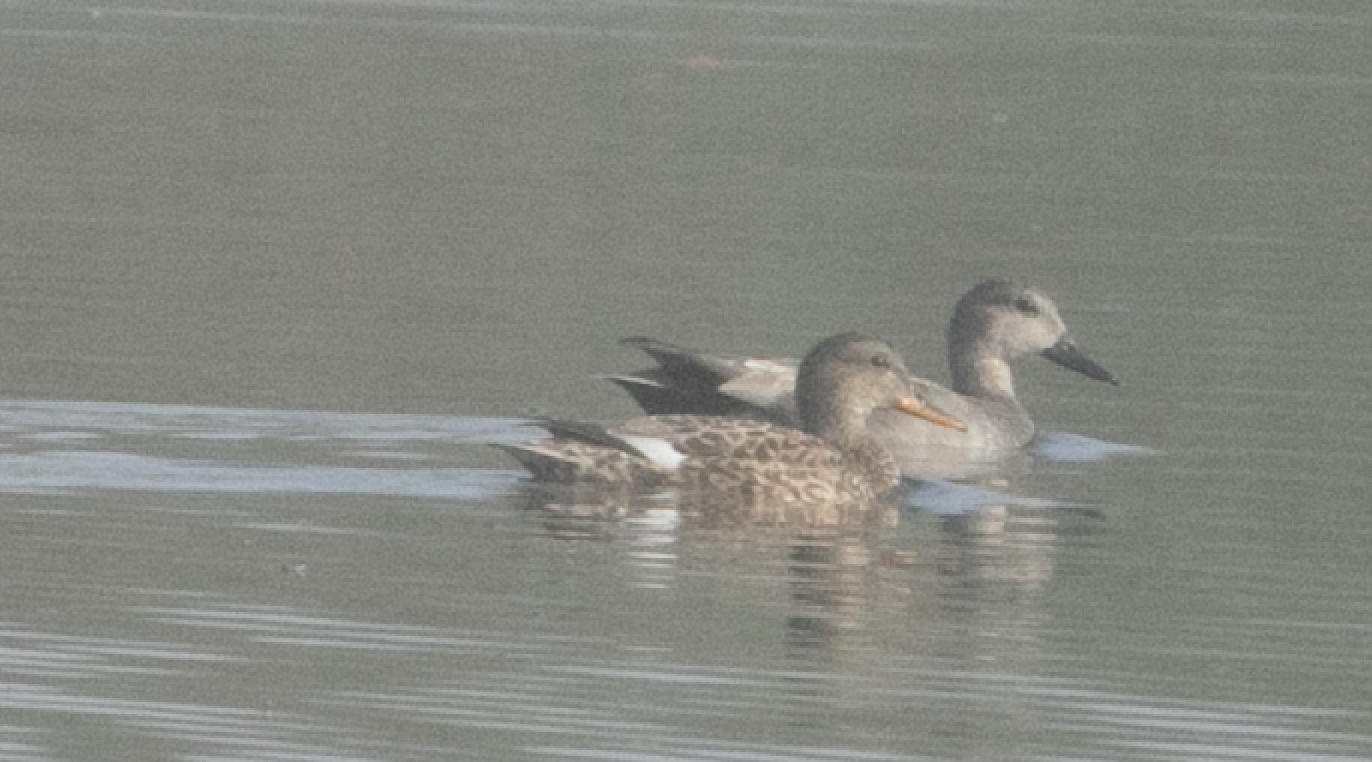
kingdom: Animalia
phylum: Chordata
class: Aves
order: Anseriformes
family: Anatidae
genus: Mareca
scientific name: Mareca strepera
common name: Gadwall
